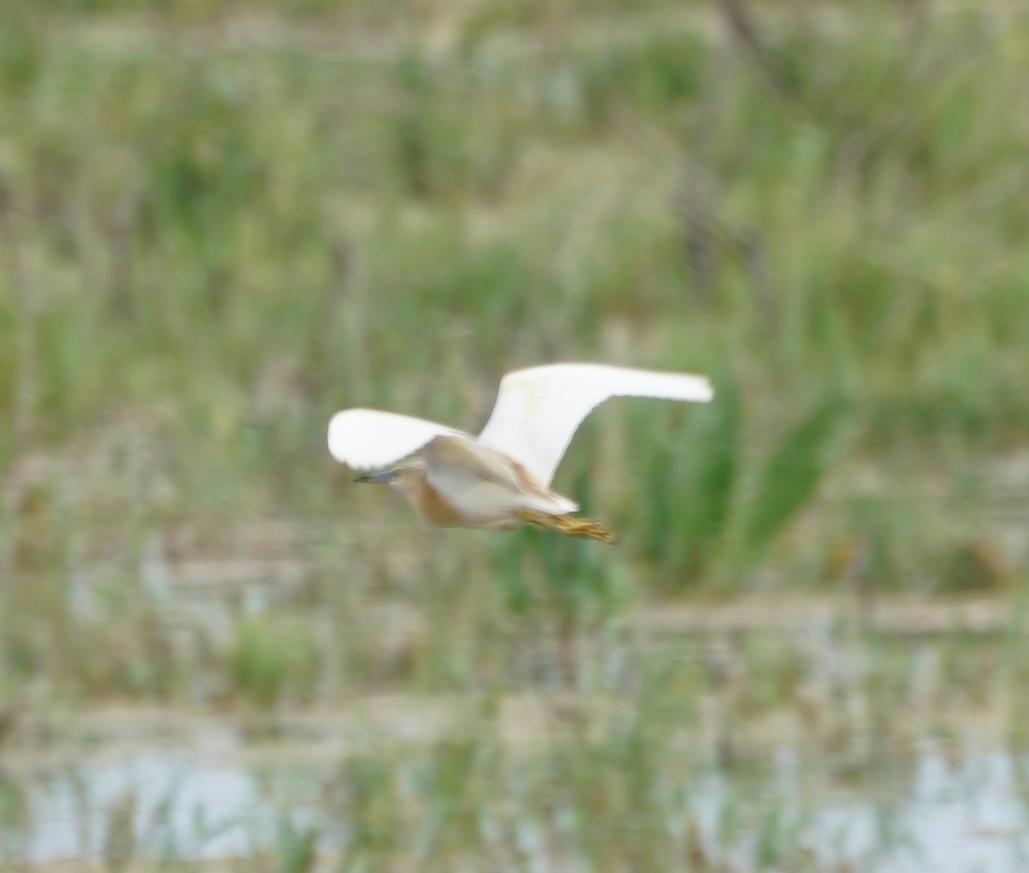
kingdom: Animalia
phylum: Chordata
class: Aves
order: Pelecaniformes
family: Ardeidae
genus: Ardeola
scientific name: Ardeola ralloides
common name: Squacco heron
